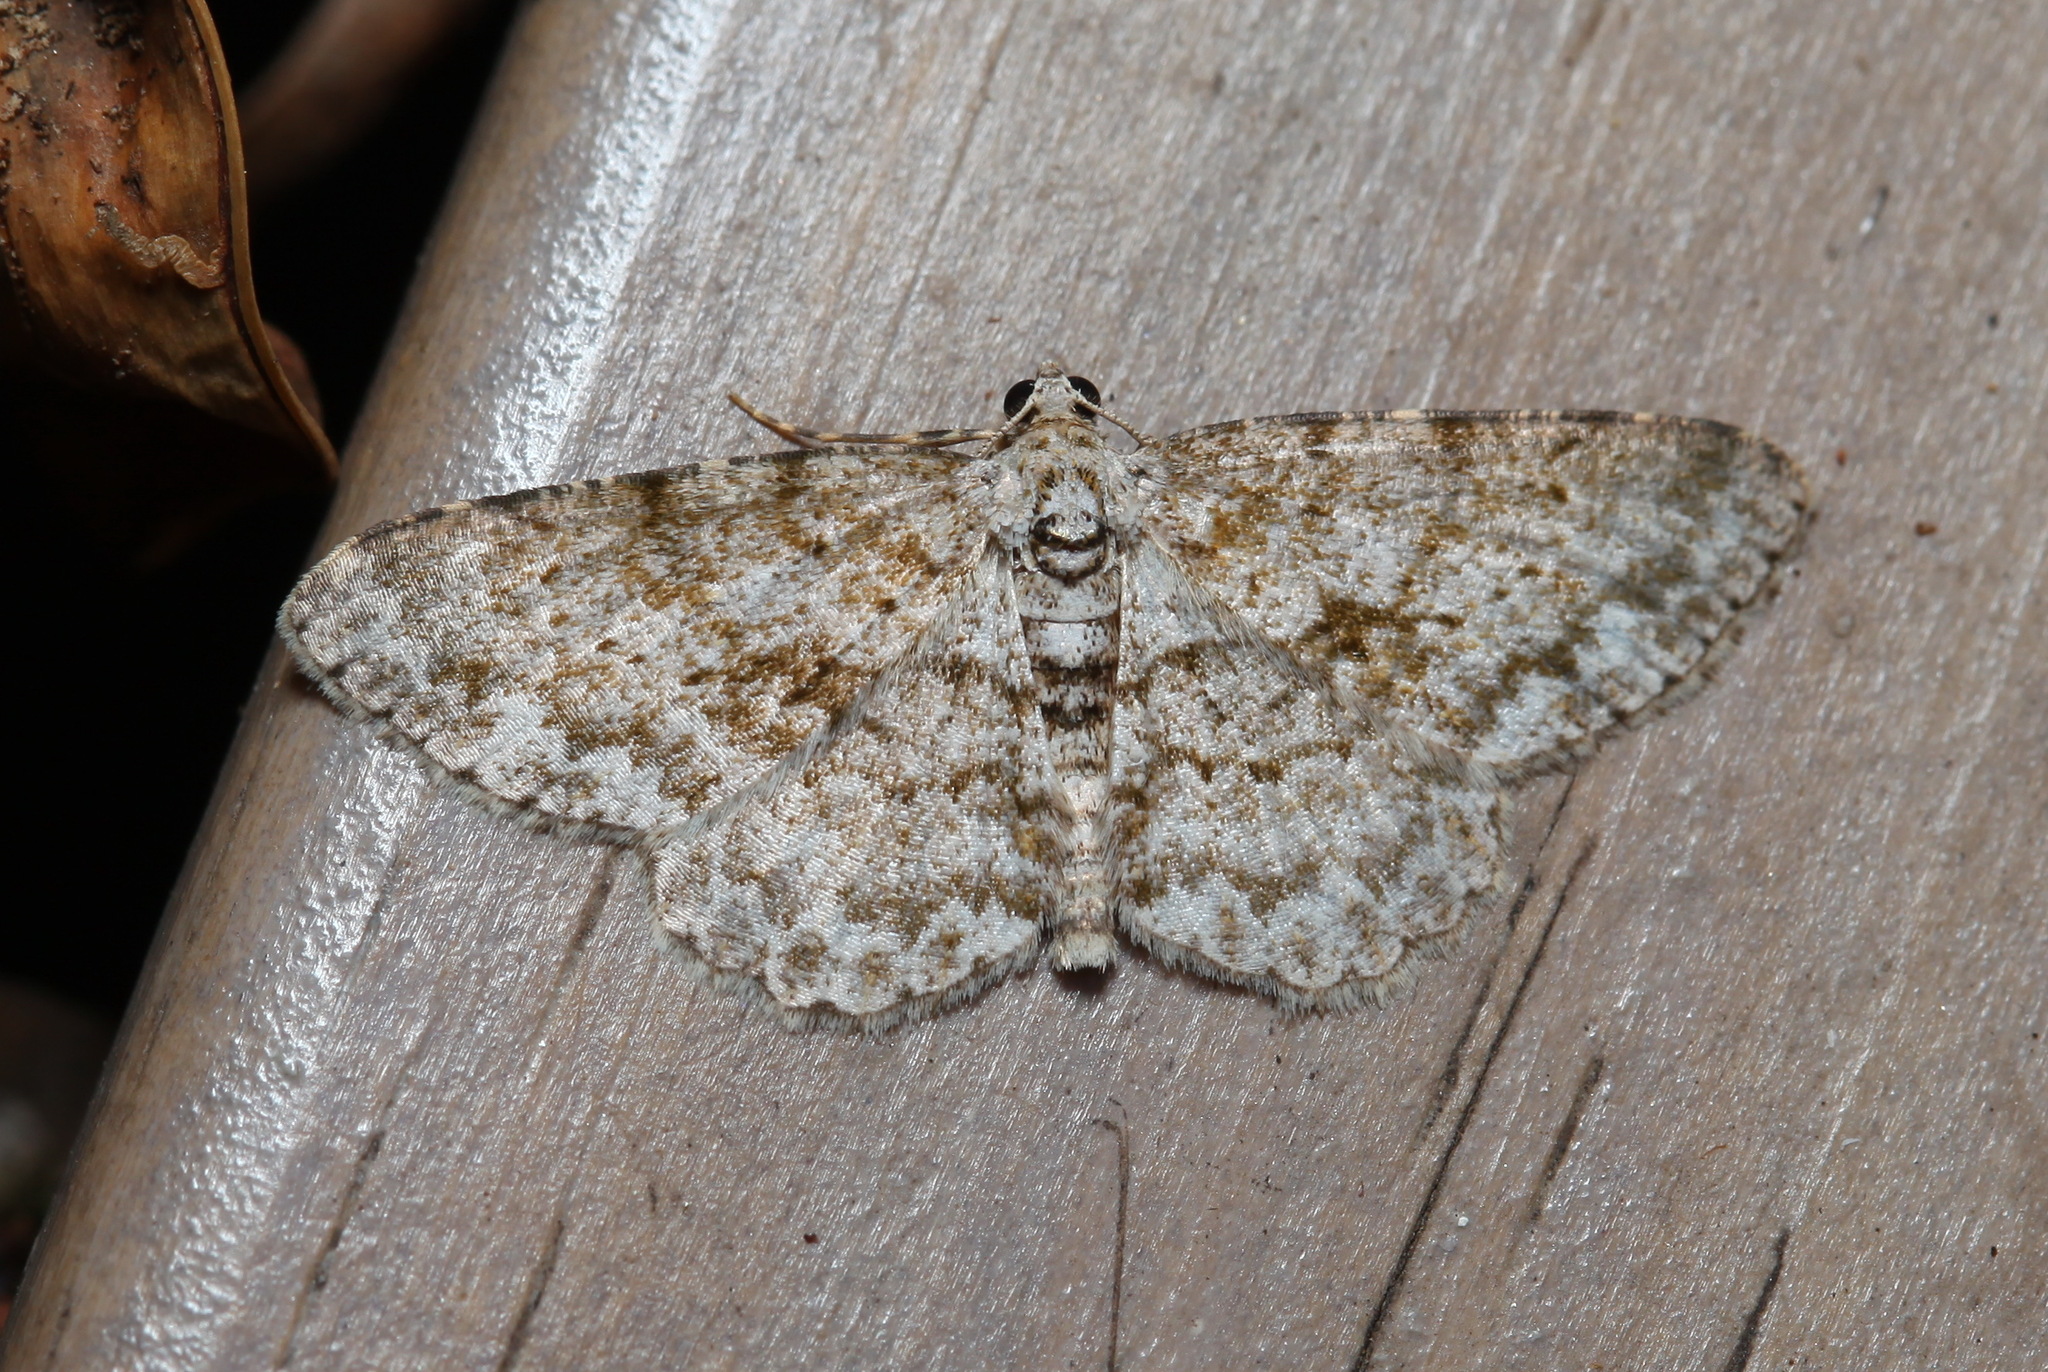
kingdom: Animalia
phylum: Arthropoda
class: Insecta
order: Lepidoptera
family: Geometridae
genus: Ascotis
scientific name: Ascotis reciprocaria
